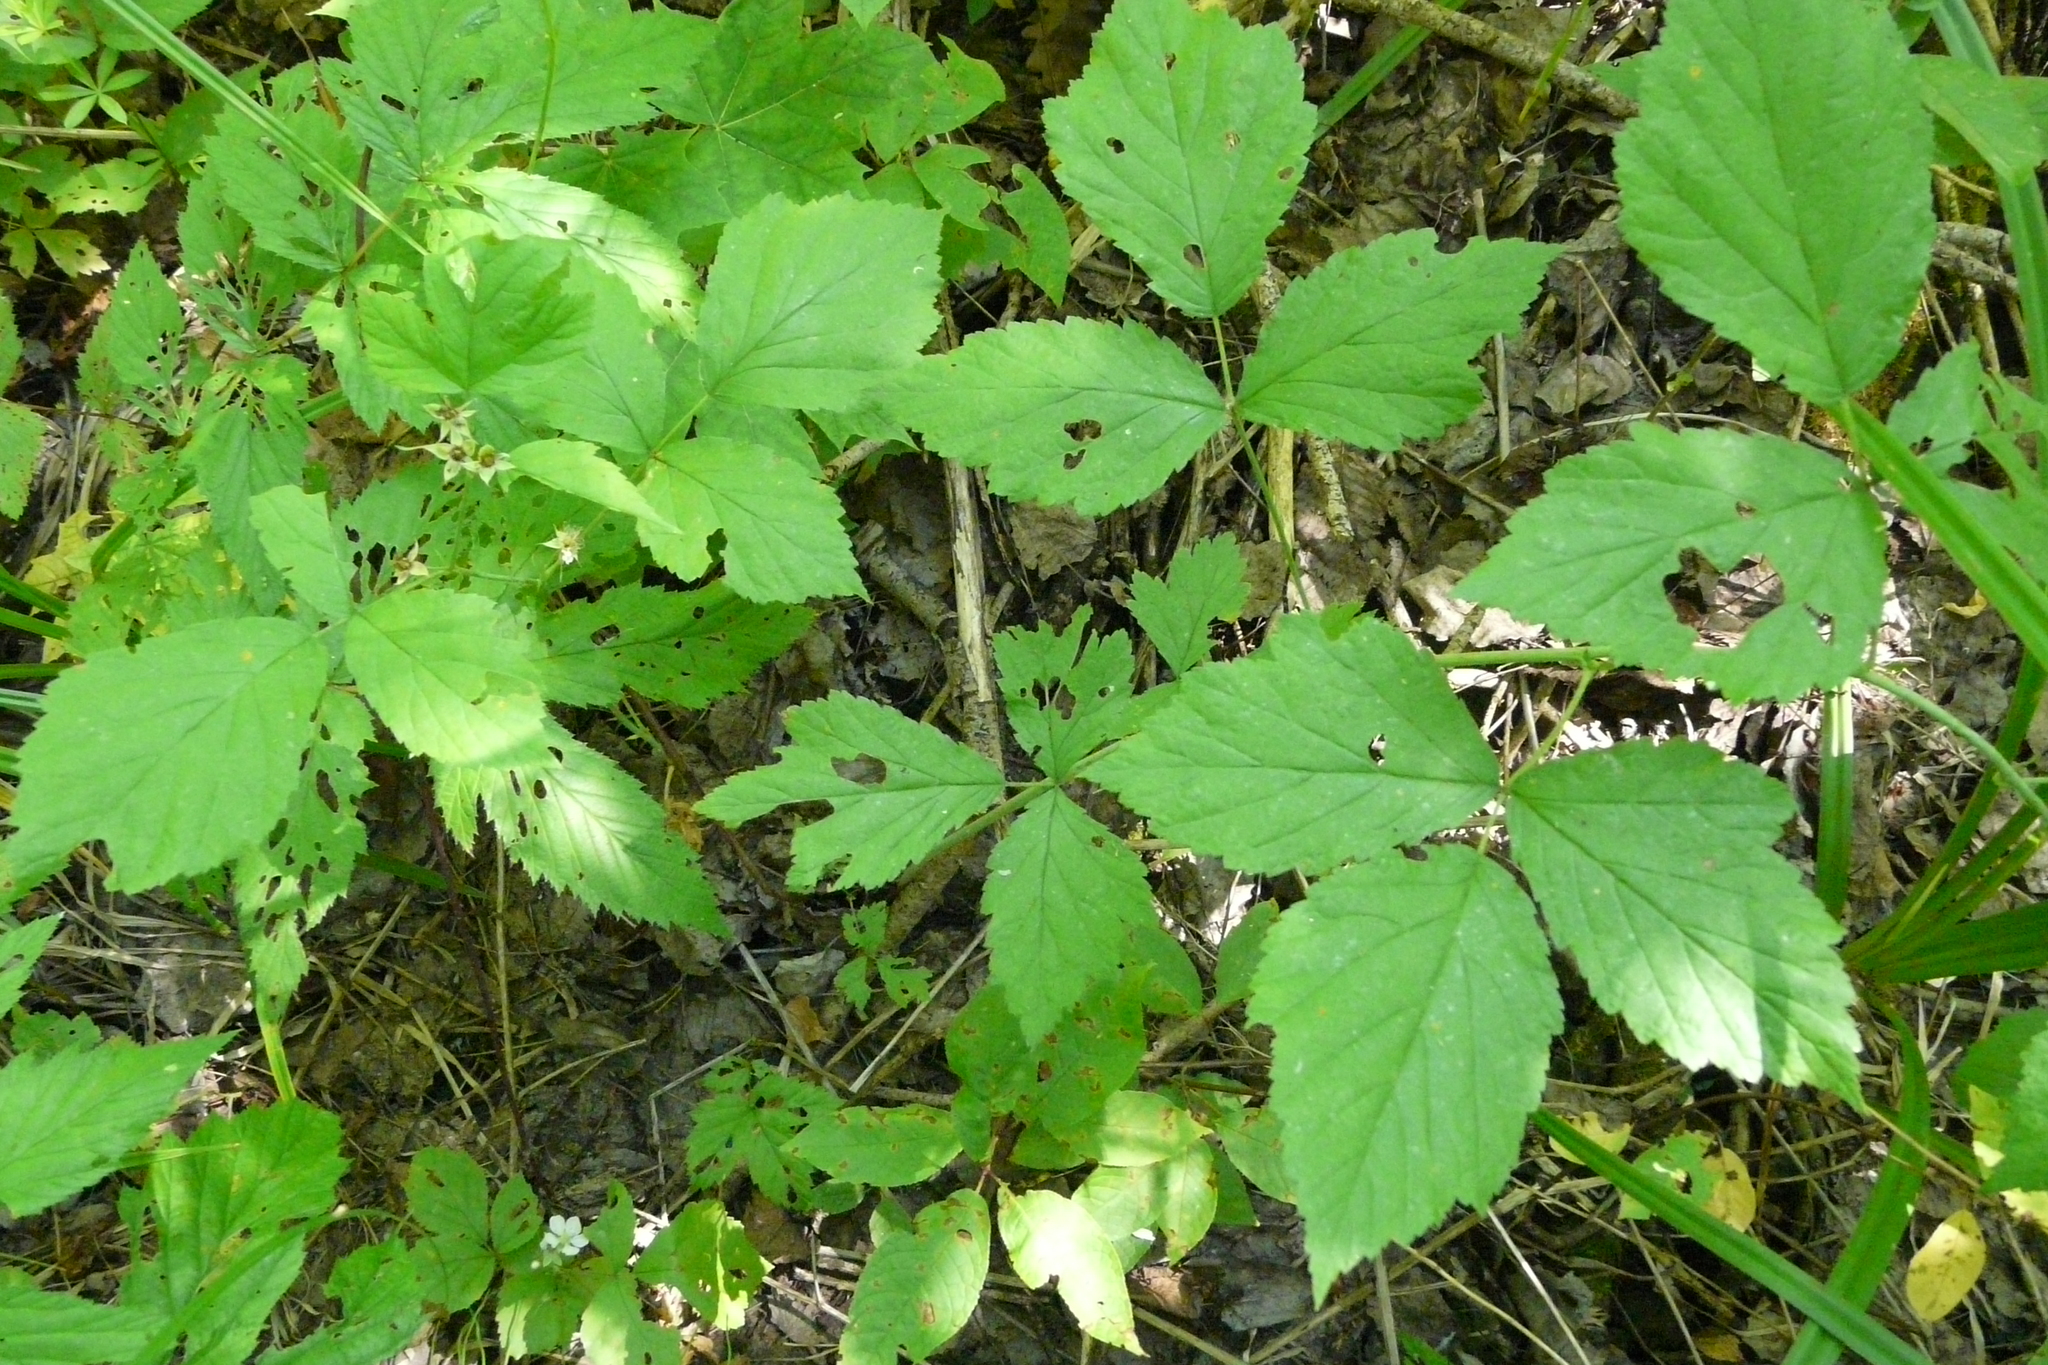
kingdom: Plantae
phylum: Tracheophyta
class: Magnoliopsida
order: Rosales
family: Rosaceae
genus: Rubus
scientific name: Rubus caesius
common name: Dewberry
